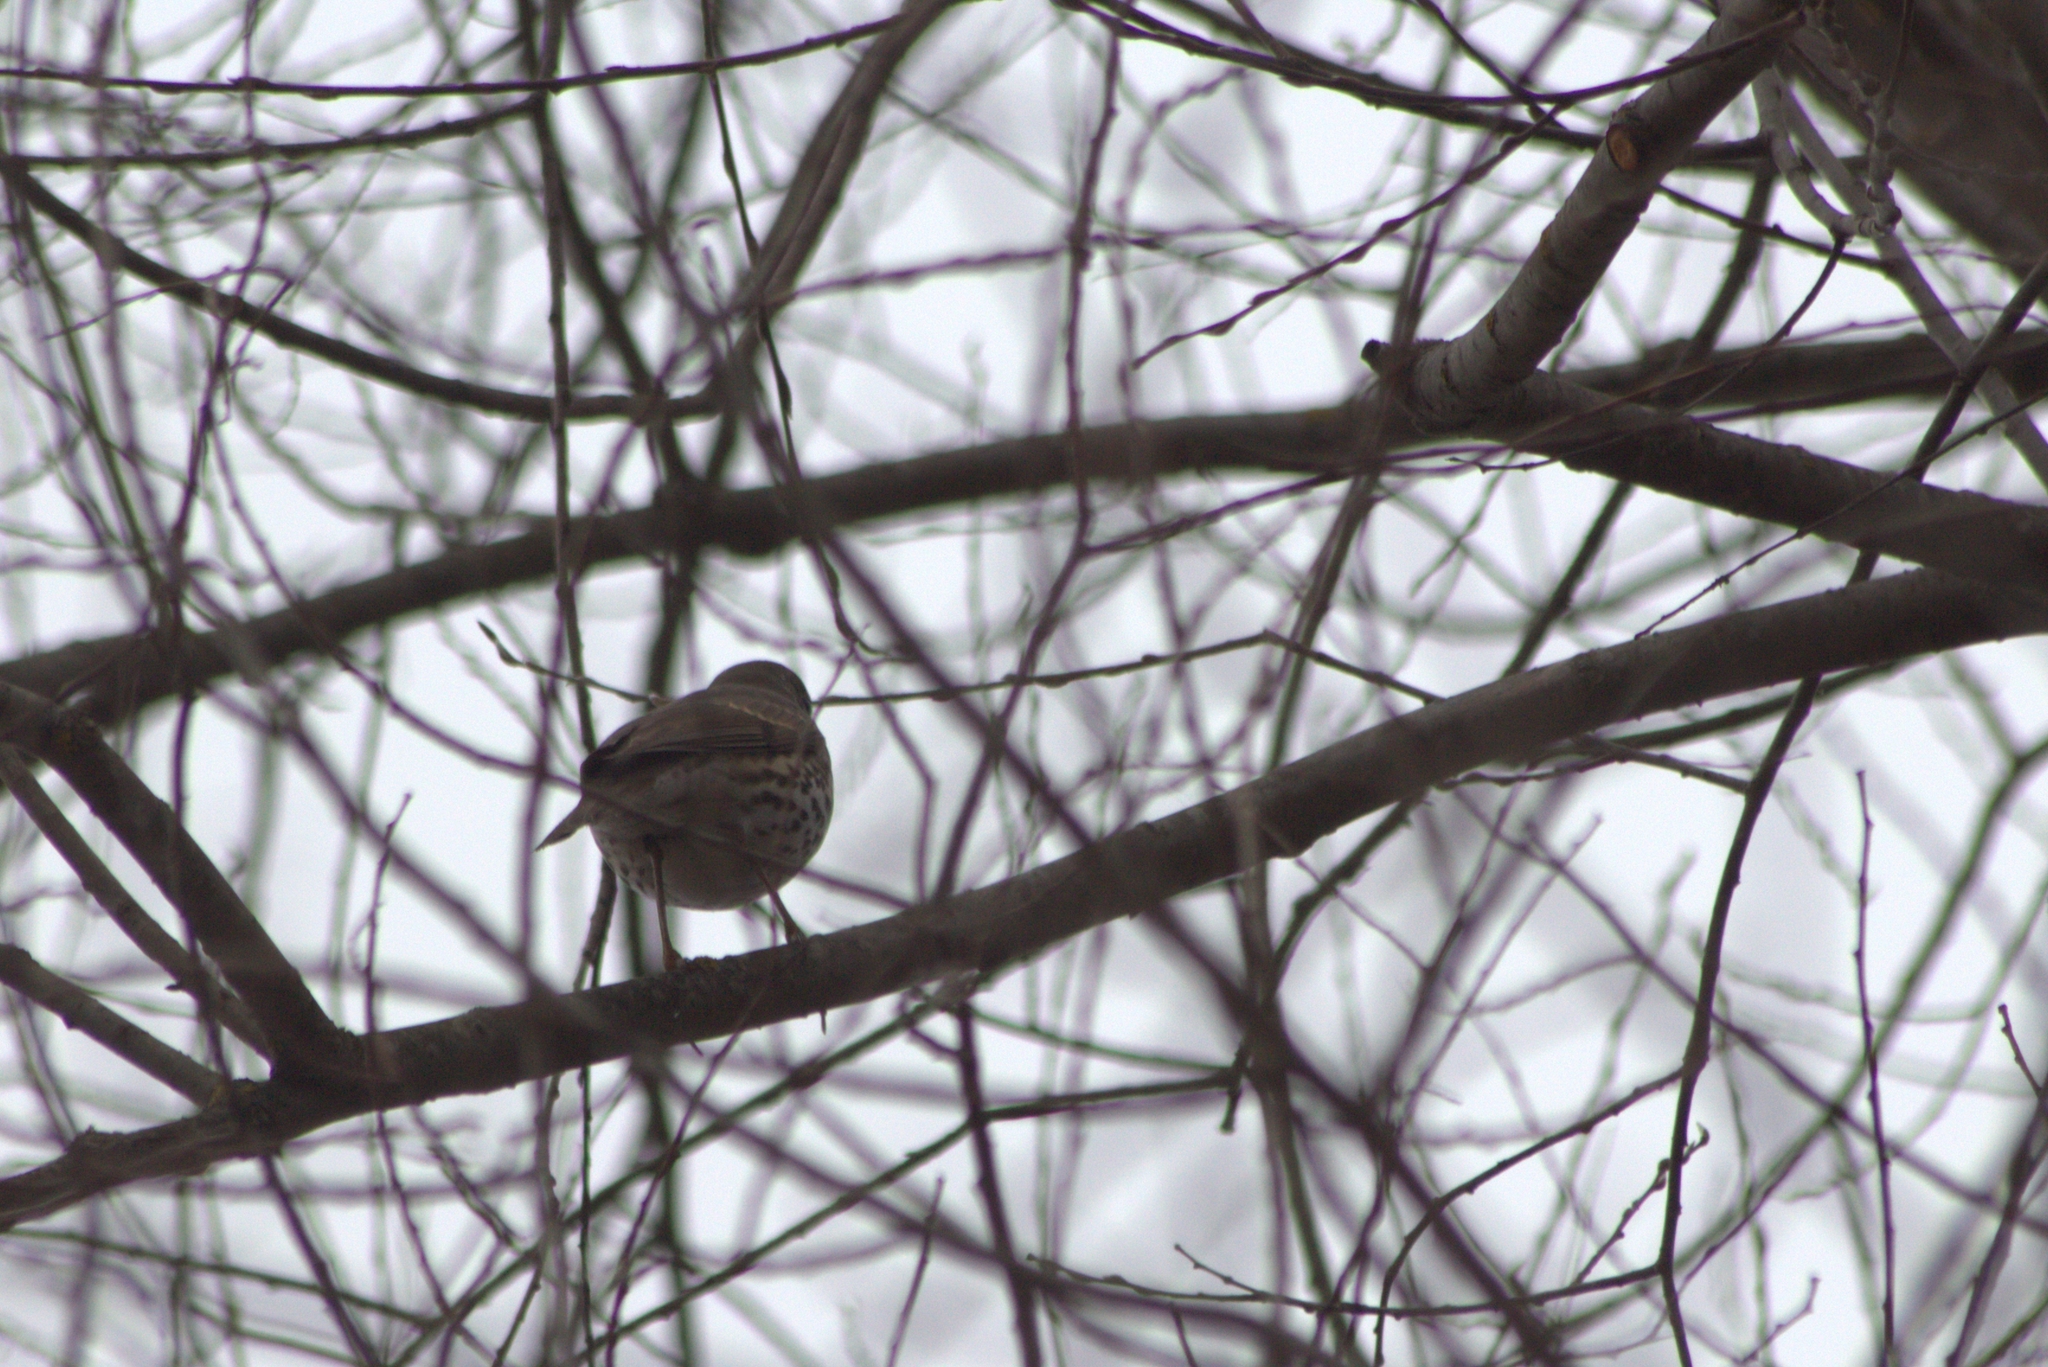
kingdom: Animalia
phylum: Chordata
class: Aves
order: Passeriformes
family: Turdidae
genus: Turdus
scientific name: Turdus philomelos
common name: Song thrush
